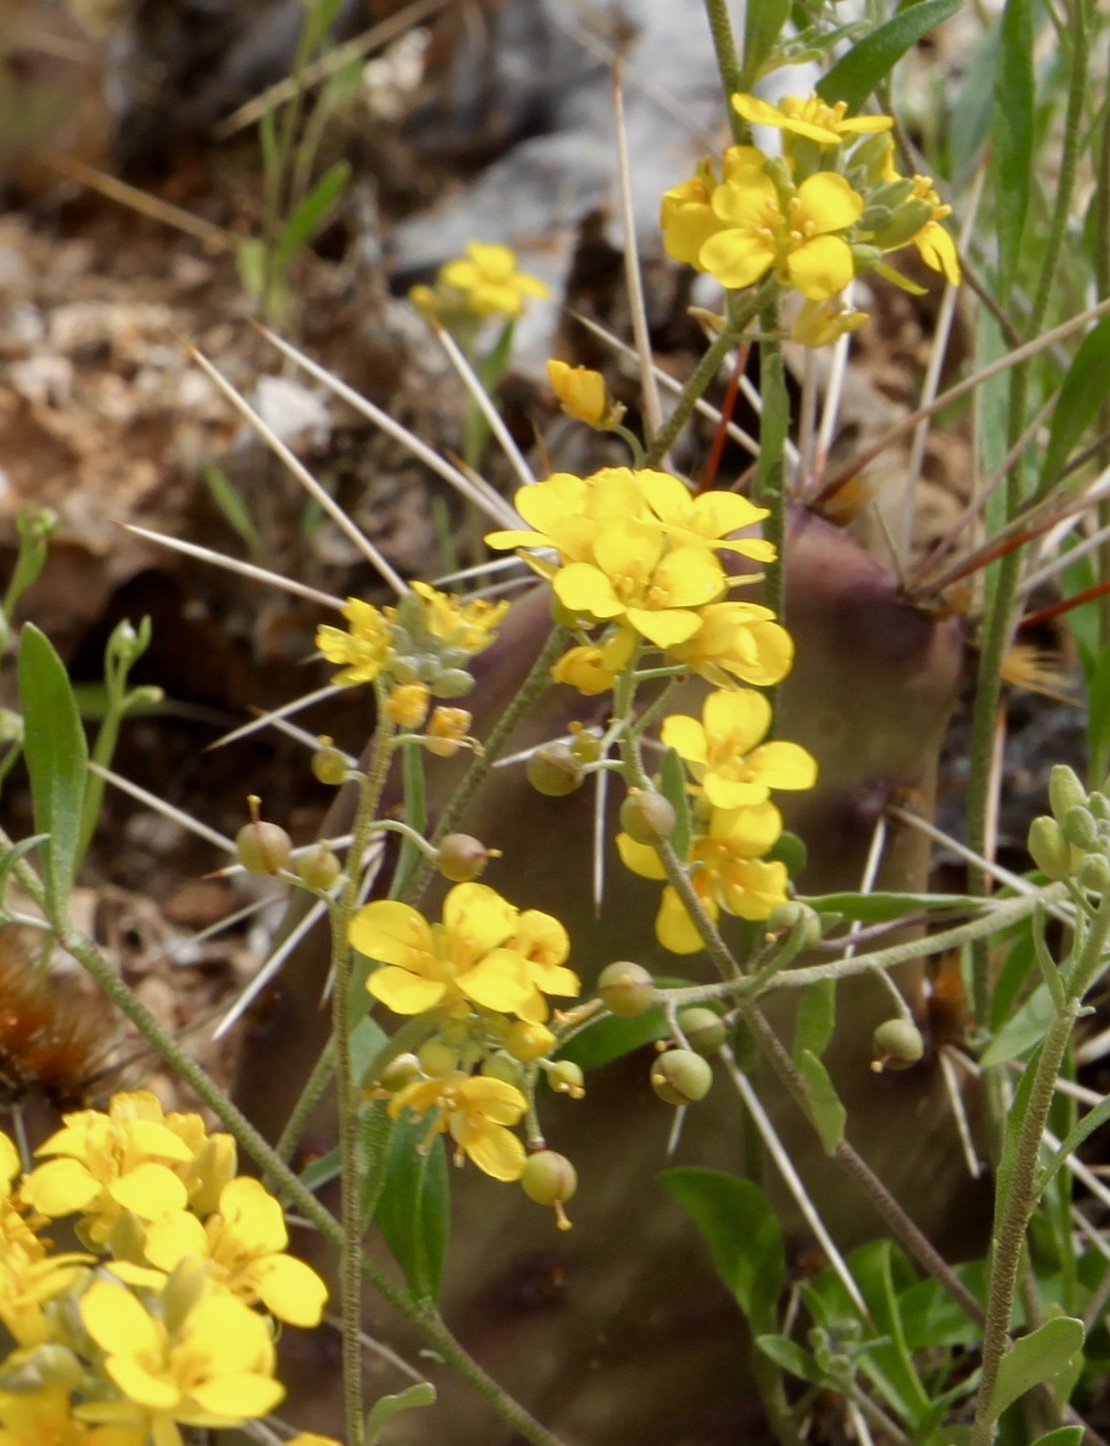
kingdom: Plantae
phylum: Tracheophyta
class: Magnoliopsida
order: Brassicales
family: Brassicaceae
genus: Physaria
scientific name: Physaria gordonii
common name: Gordon's bladderpod
